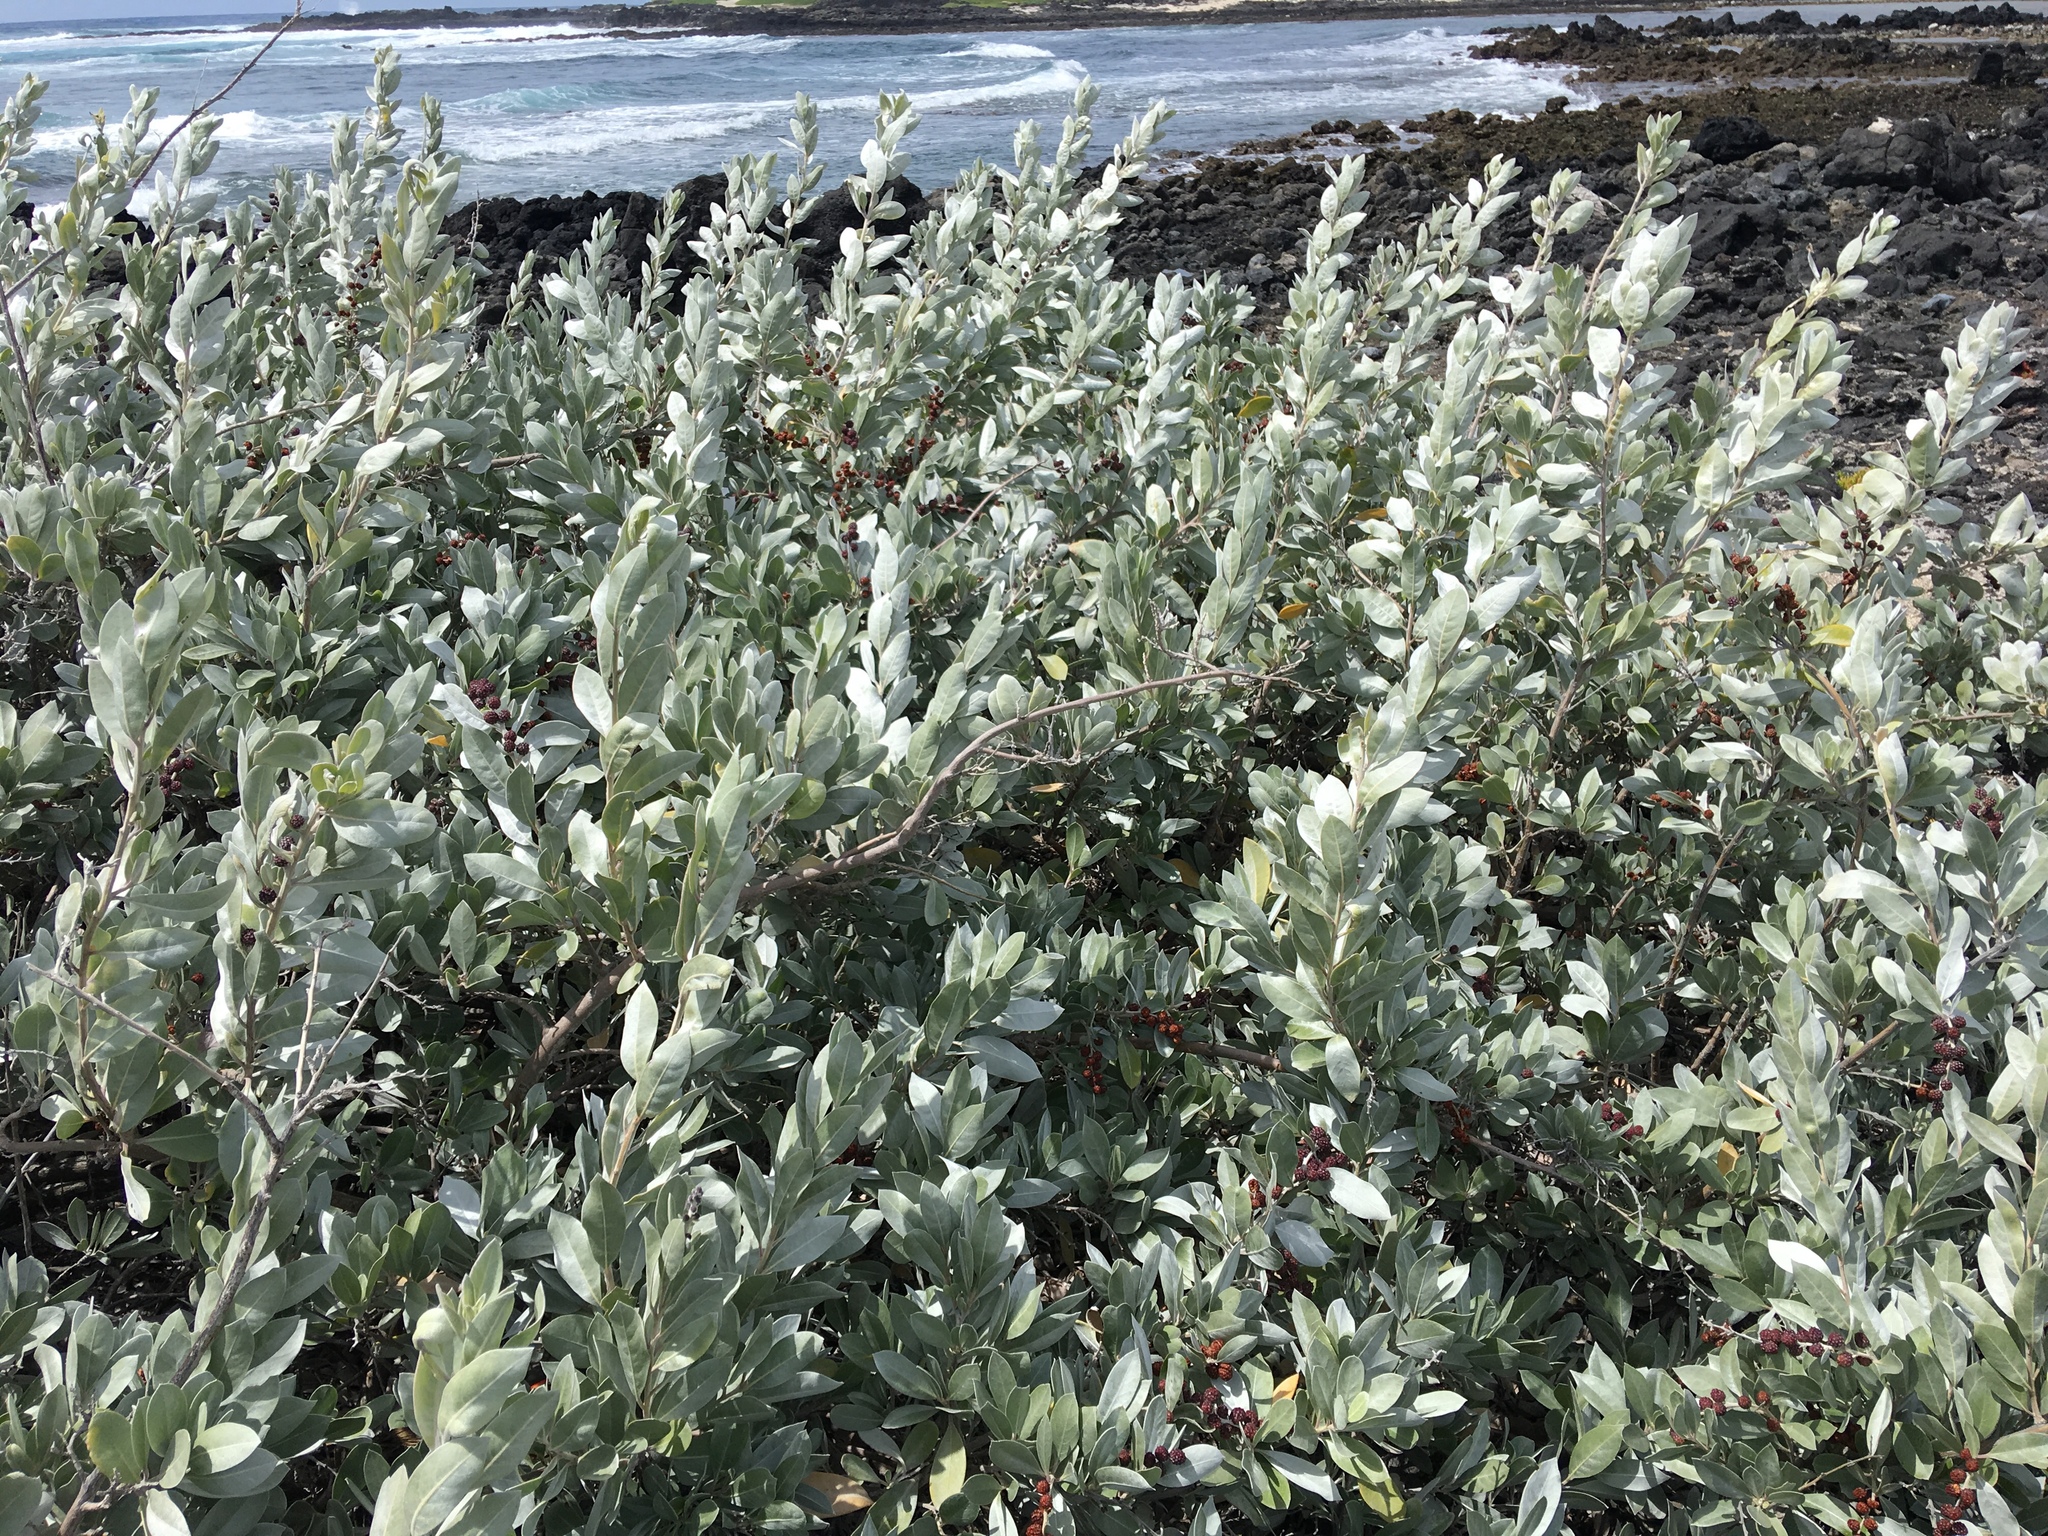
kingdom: Plantae
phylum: Tracheophyta
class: Magnoliopsida
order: Myrtales
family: Combretaceae
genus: Conocarpus
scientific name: Conocarpus erectus
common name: Button mangrove
